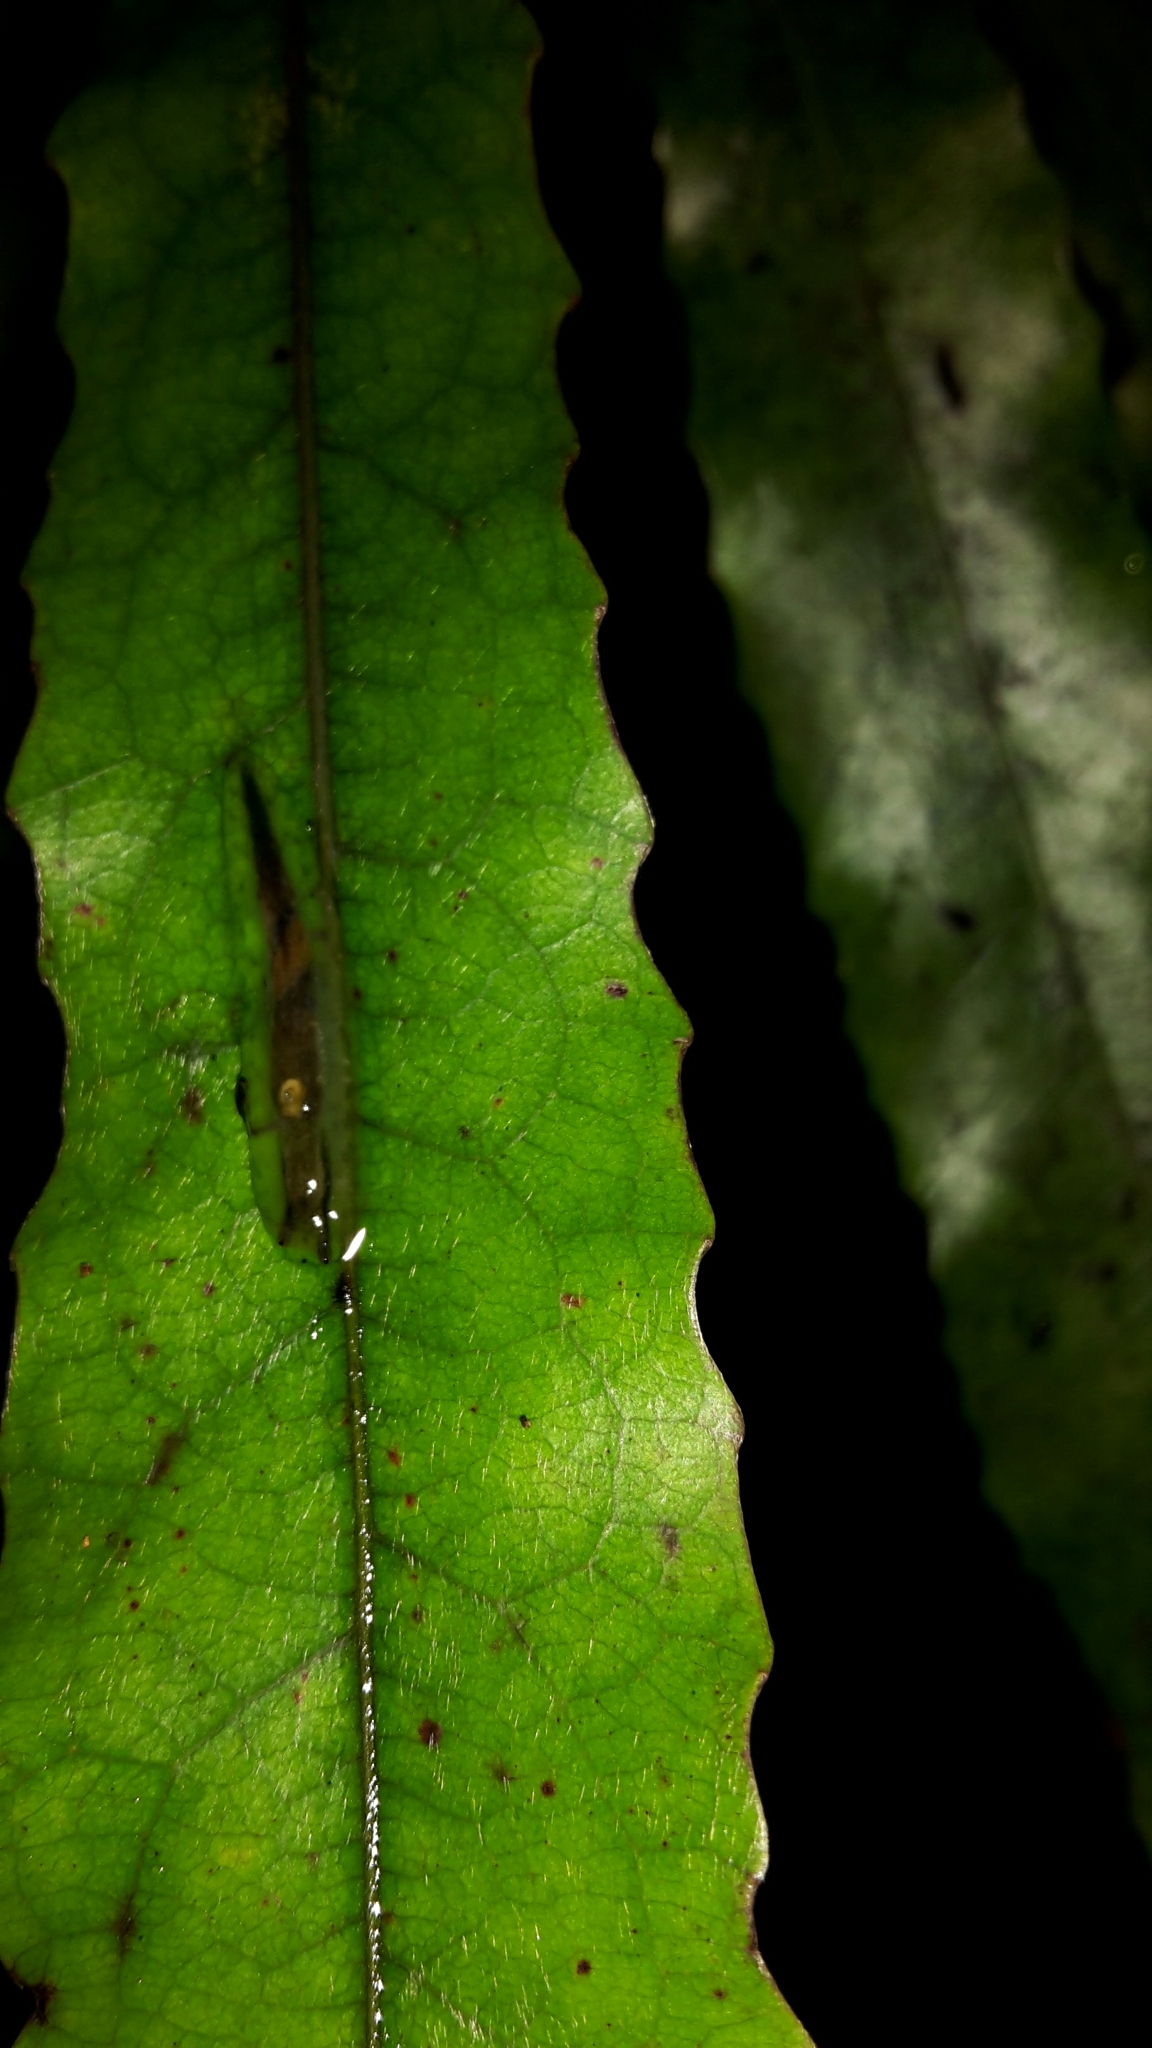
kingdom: Animalia
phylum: Mollusca
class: Gastropoda
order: Stylommatophora
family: Athoracophoridae
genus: Athoracophorus
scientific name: Athoracophorus
